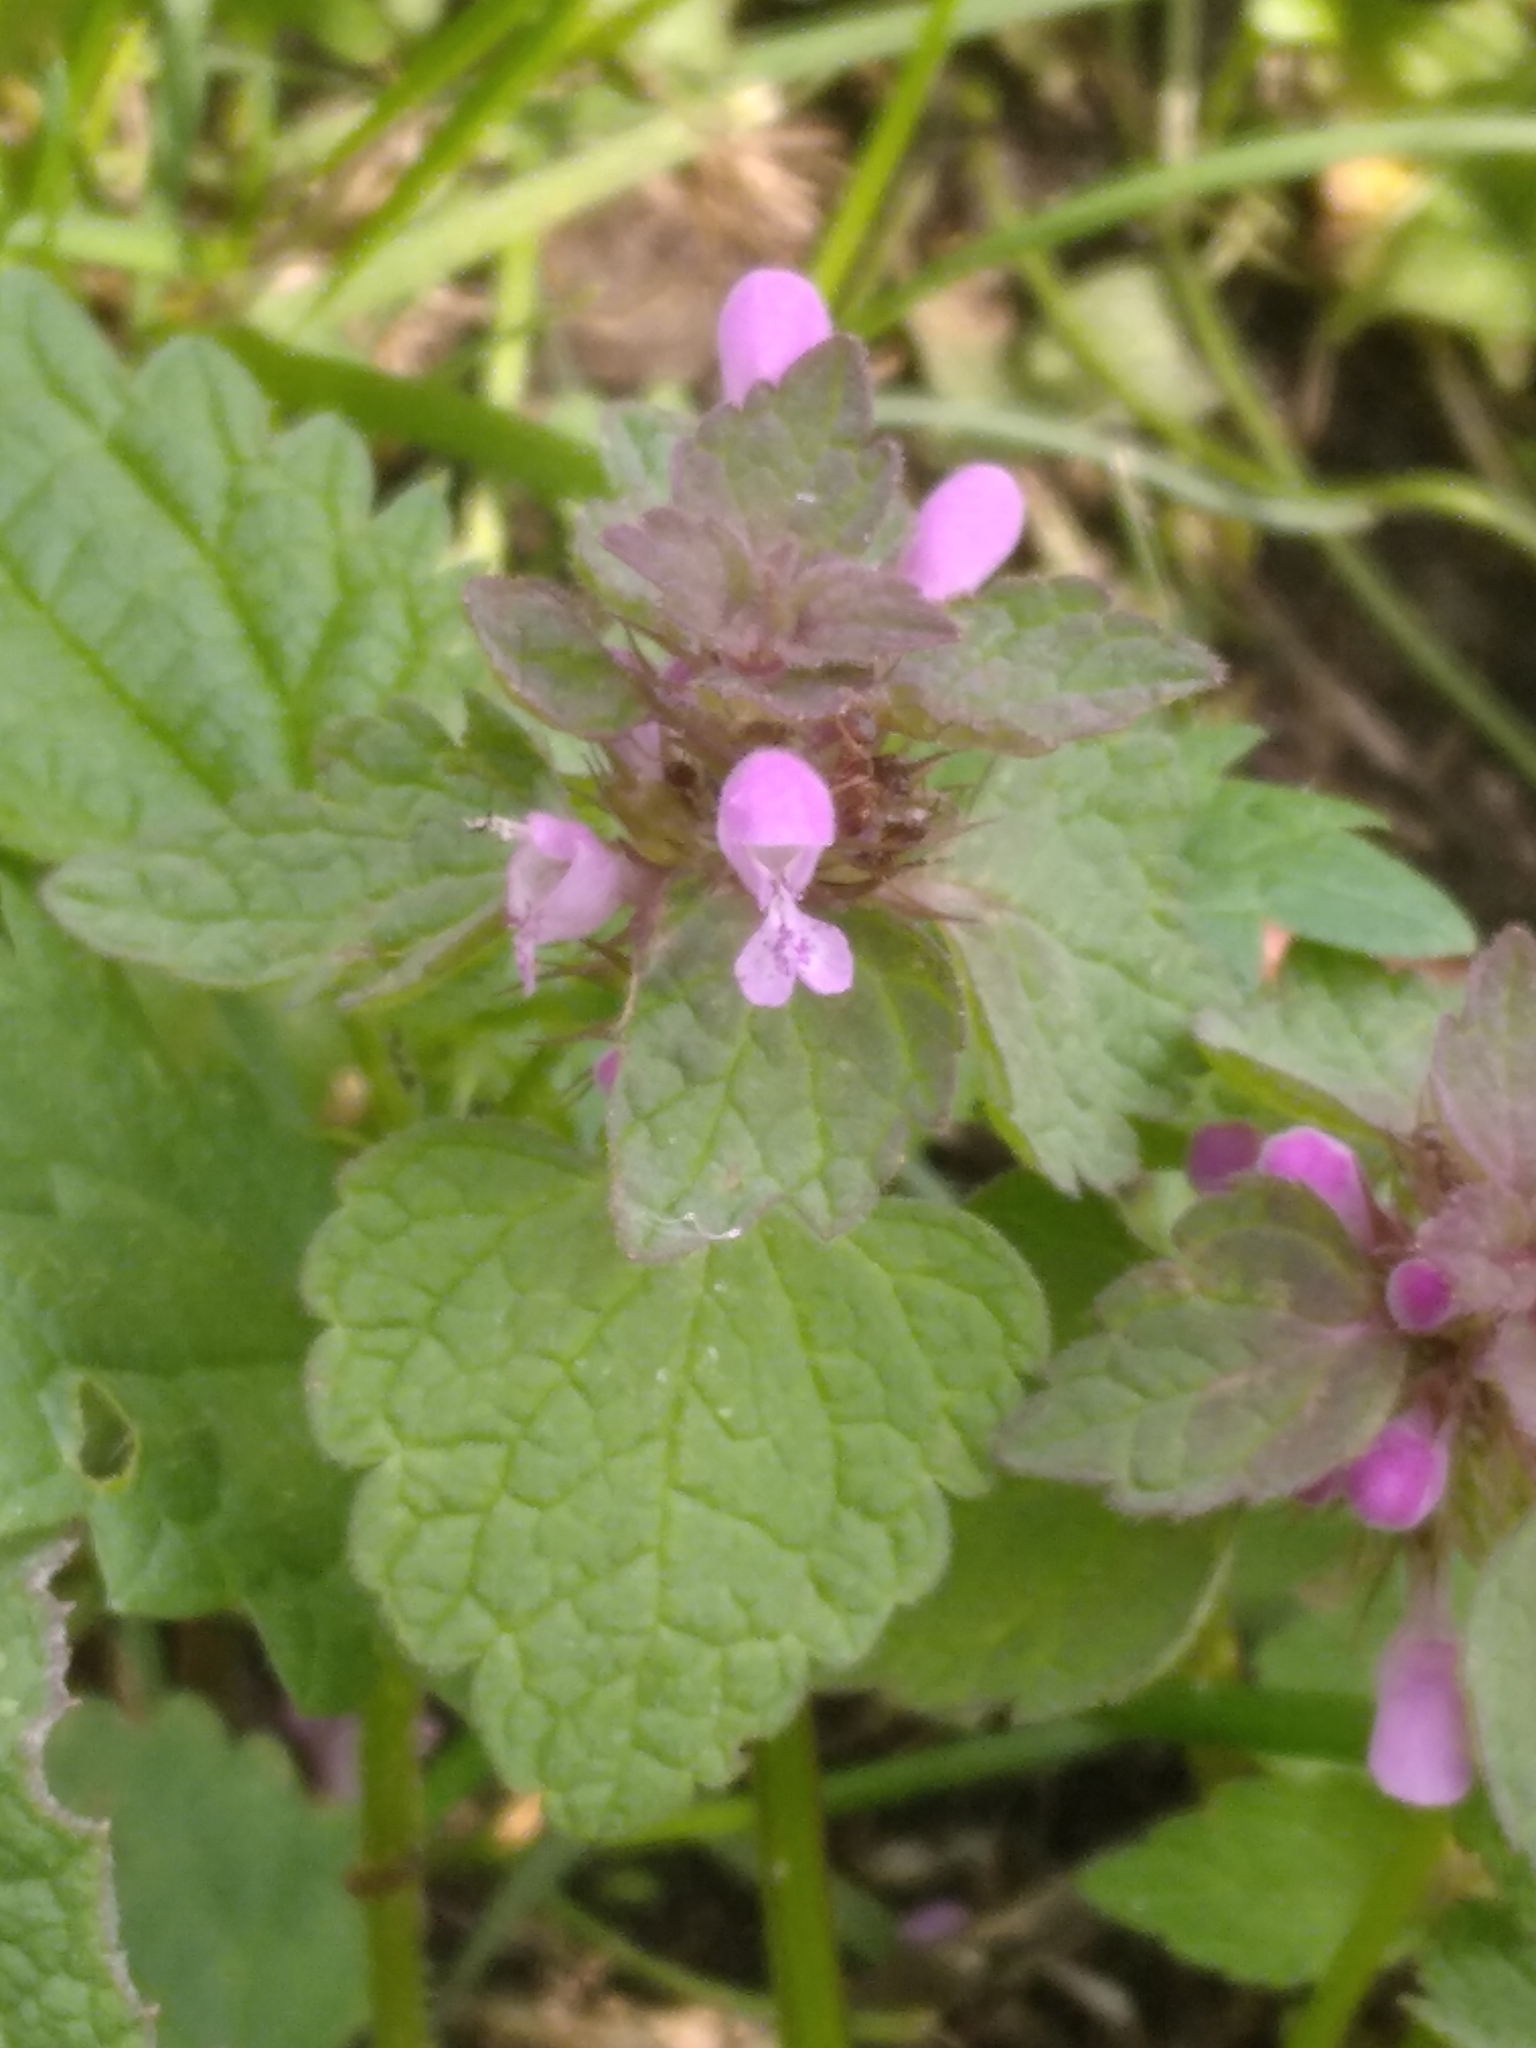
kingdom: Plantae
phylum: Tracheophyta
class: Magnoliopsida
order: Lamiales
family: Lamiaceae
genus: Lamium
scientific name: Lamium purpureum
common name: Red dead-nettle
